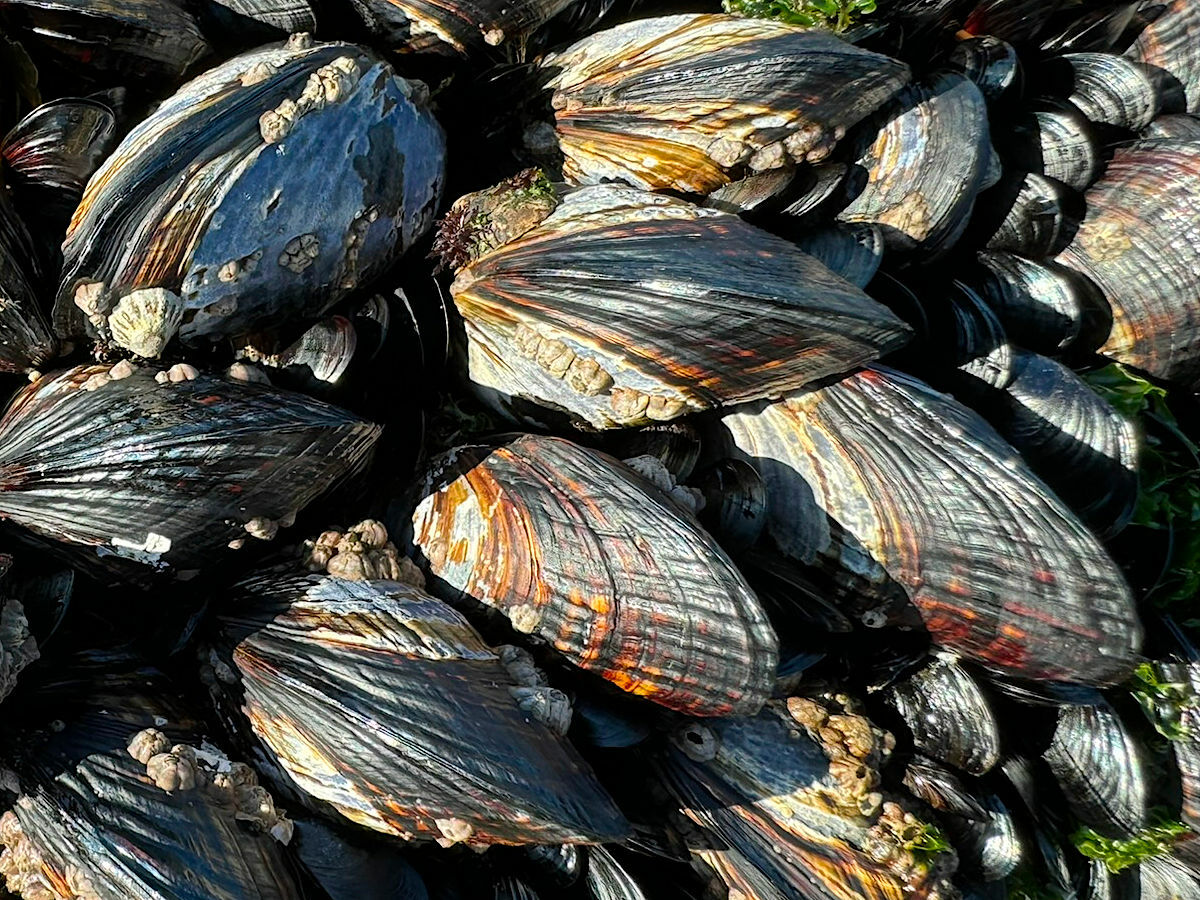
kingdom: Animalia
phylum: Mollusca
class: Bivalvia
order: Mytilida
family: Mytilidae
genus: Mytilus
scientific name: Mytilus californianus
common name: California mussel
